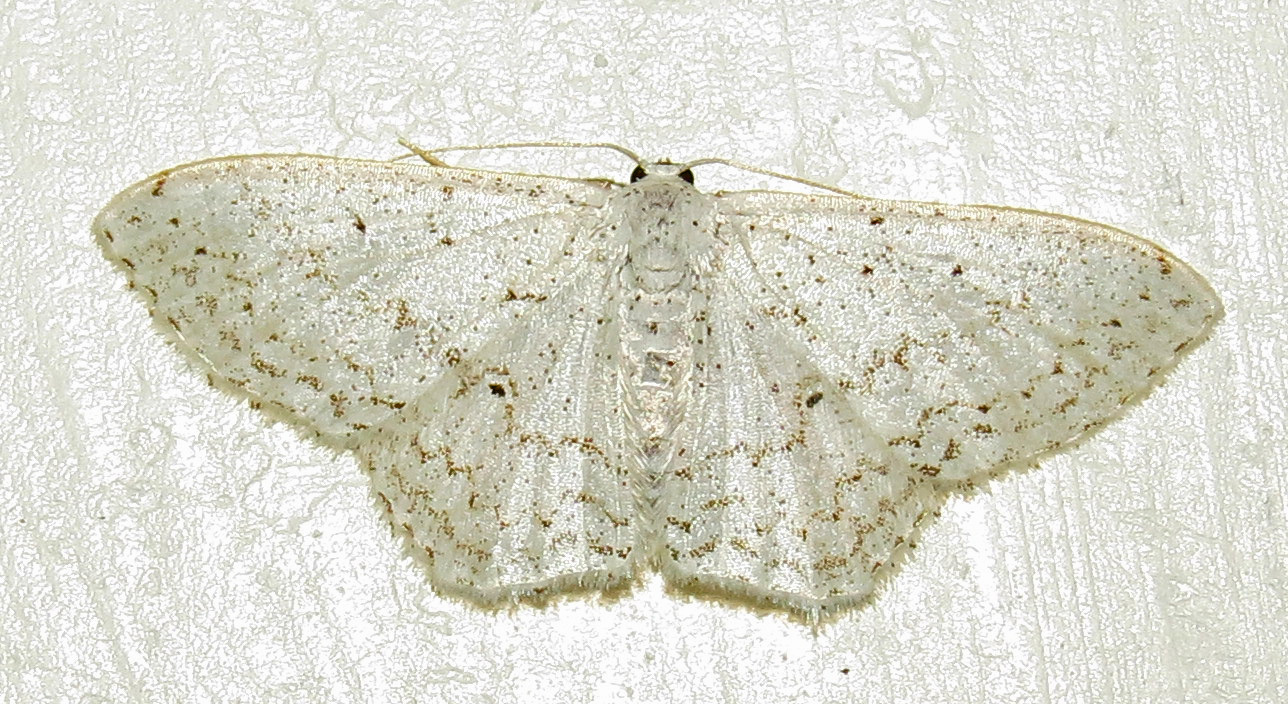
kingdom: Animalia
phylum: Arthropoda
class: Insecta
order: Lepidoptera
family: Geometridae
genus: Idaea
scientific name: Idaea tacturata
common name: Dot-lined wave
